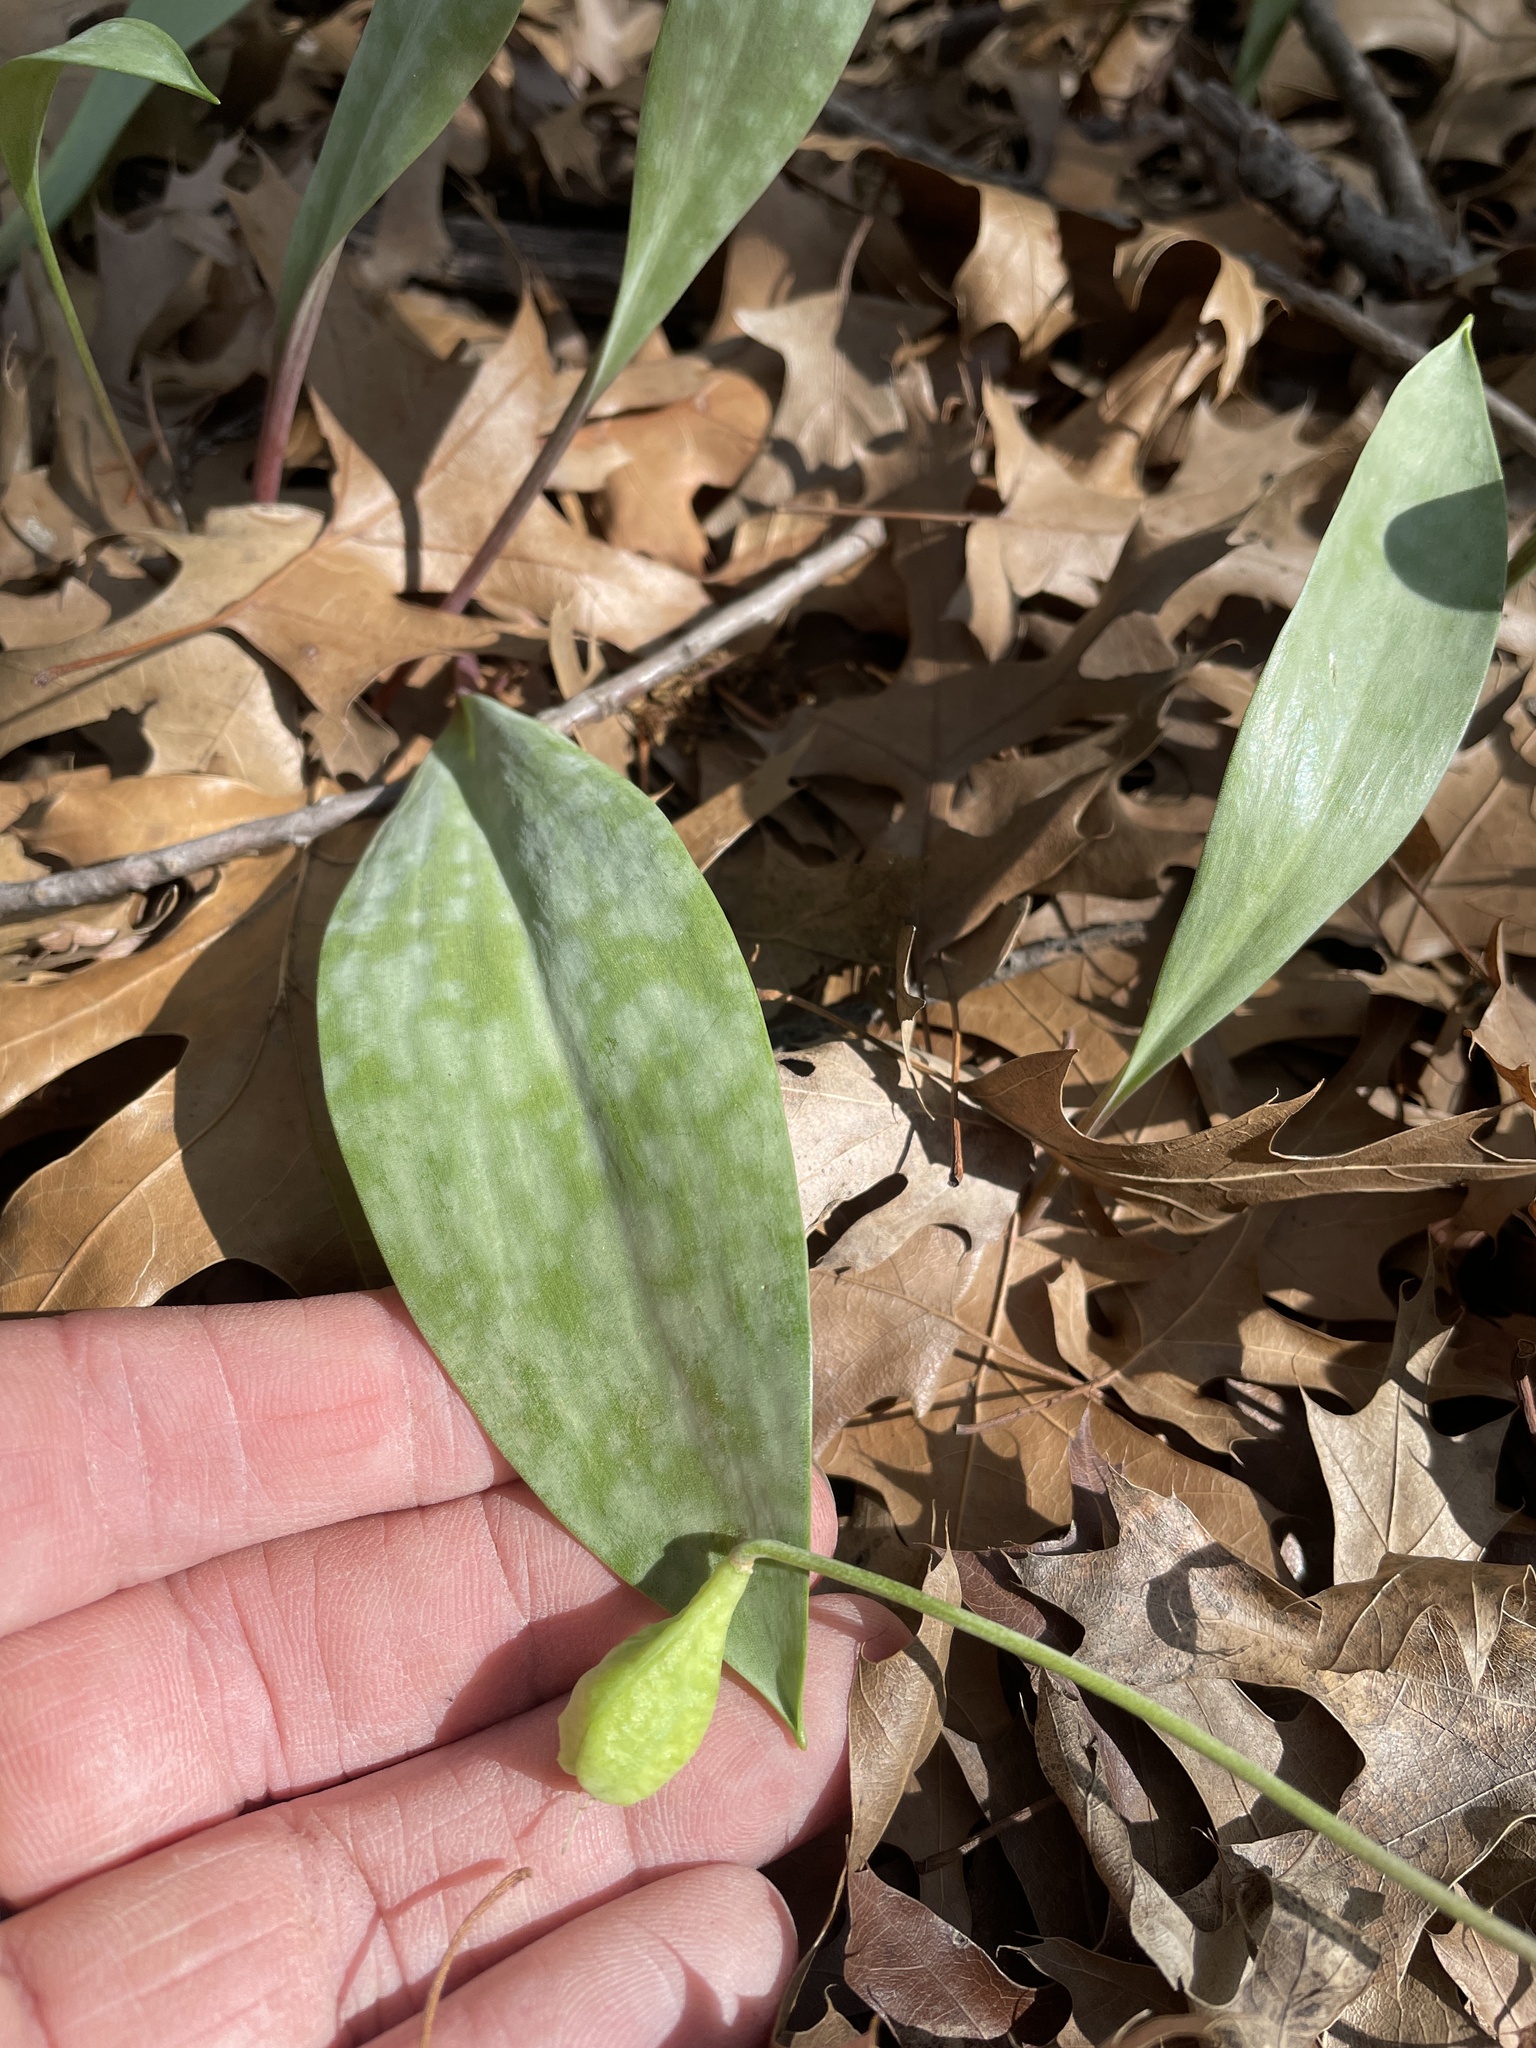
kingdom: Plantae
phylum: Tracheophyta
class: Liliopsida
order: Liliales
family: Liliaceae
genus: Erythronium
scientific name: Erythronium albidum
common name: White trout-lily
